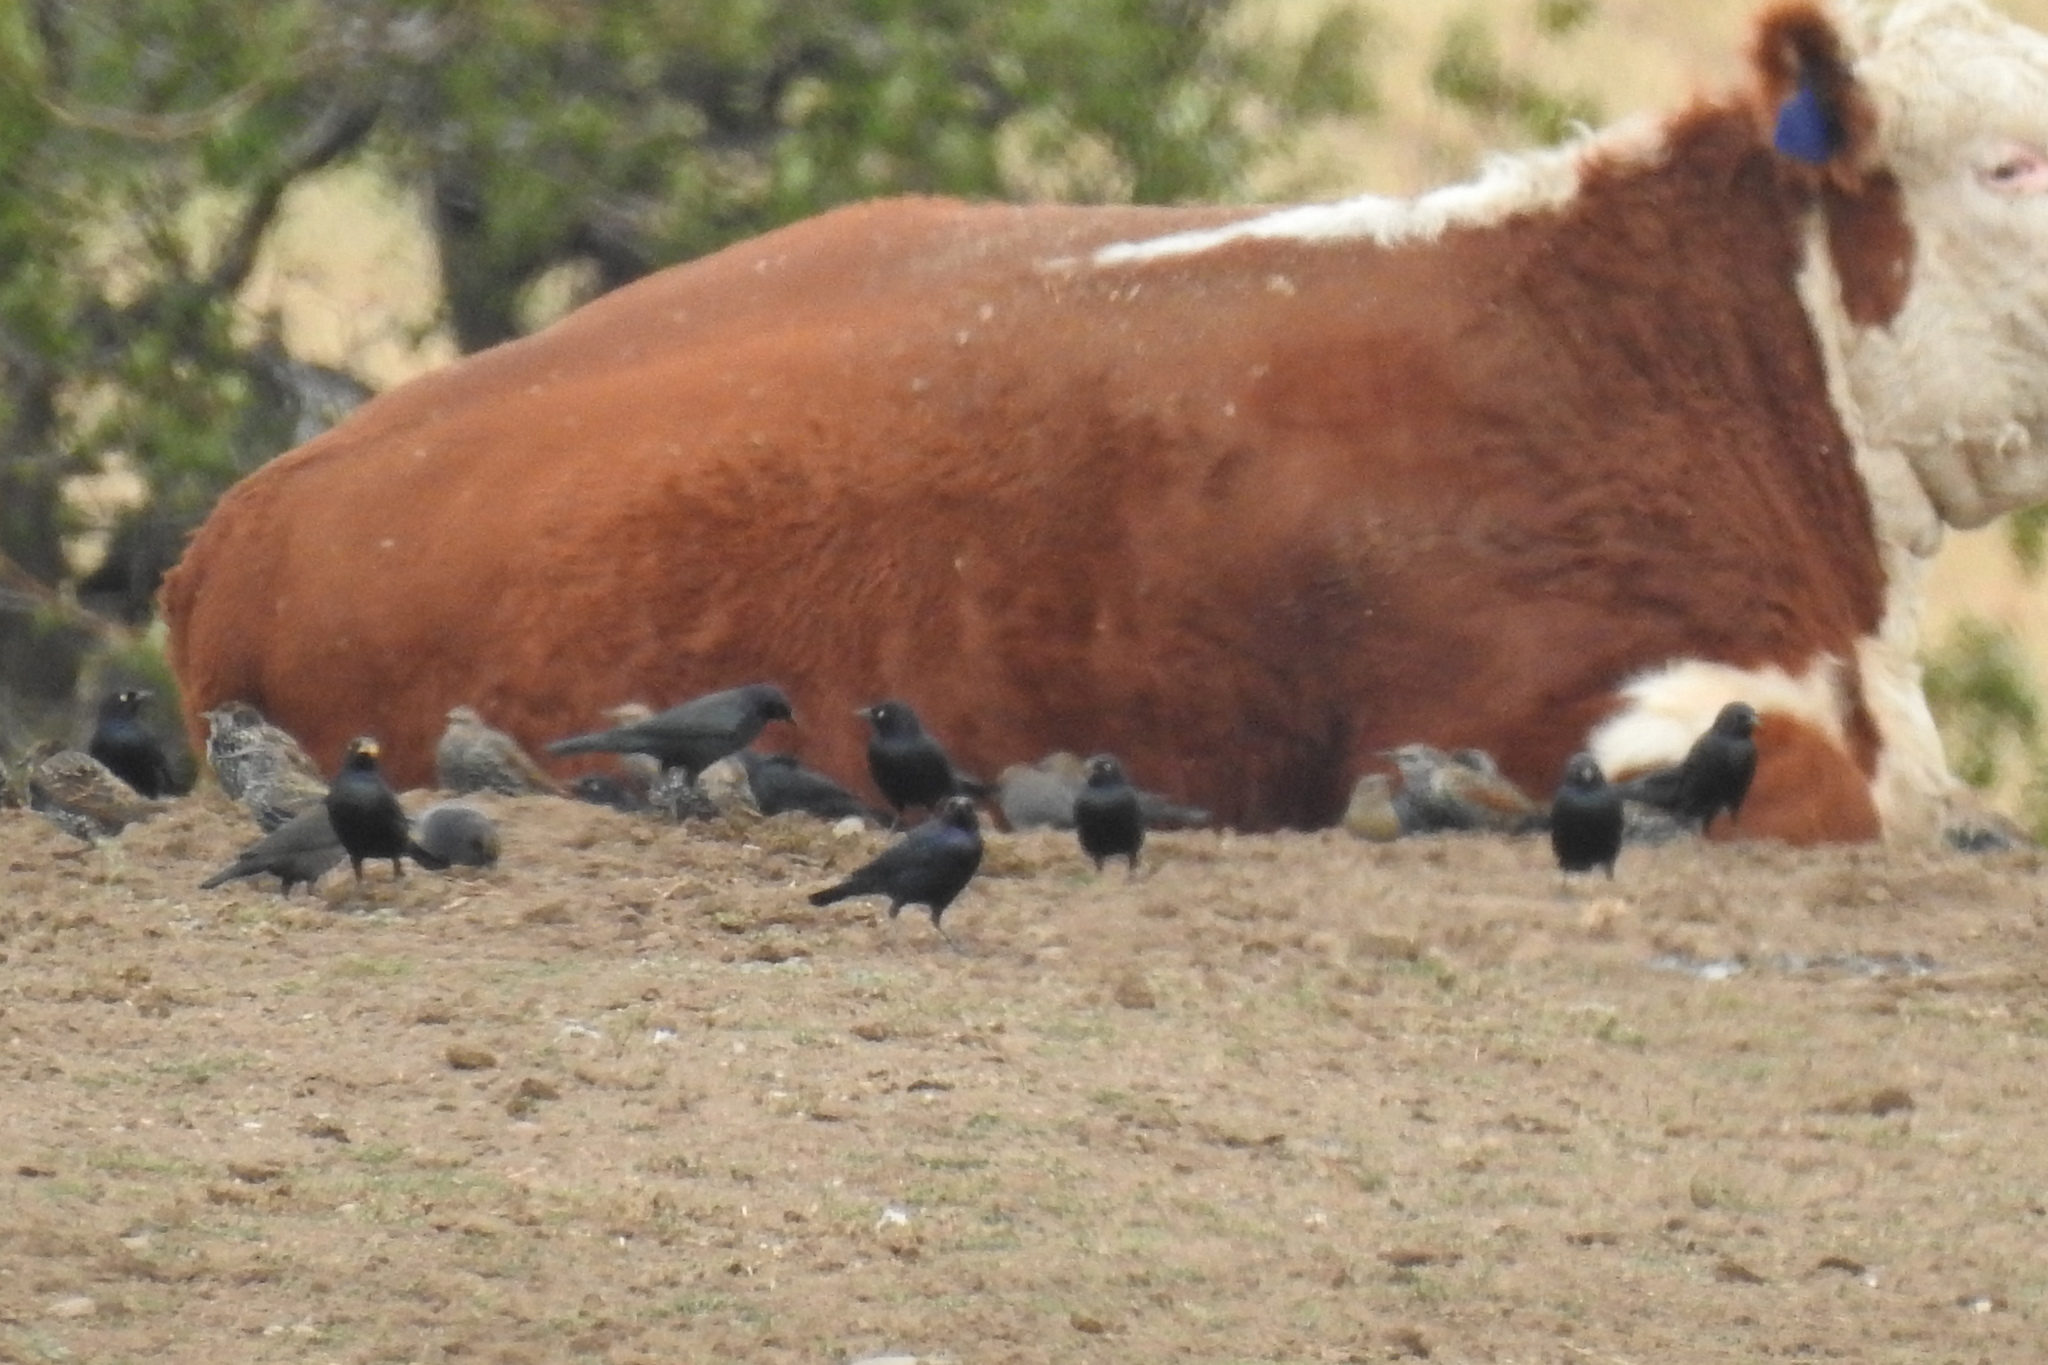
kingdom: Animalia
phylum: Chordata
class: Aves
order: Passeriformes
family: Icteridae
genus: Euphagus
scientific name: Euphagus cyanocephalus
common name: Brewer's blackbird
